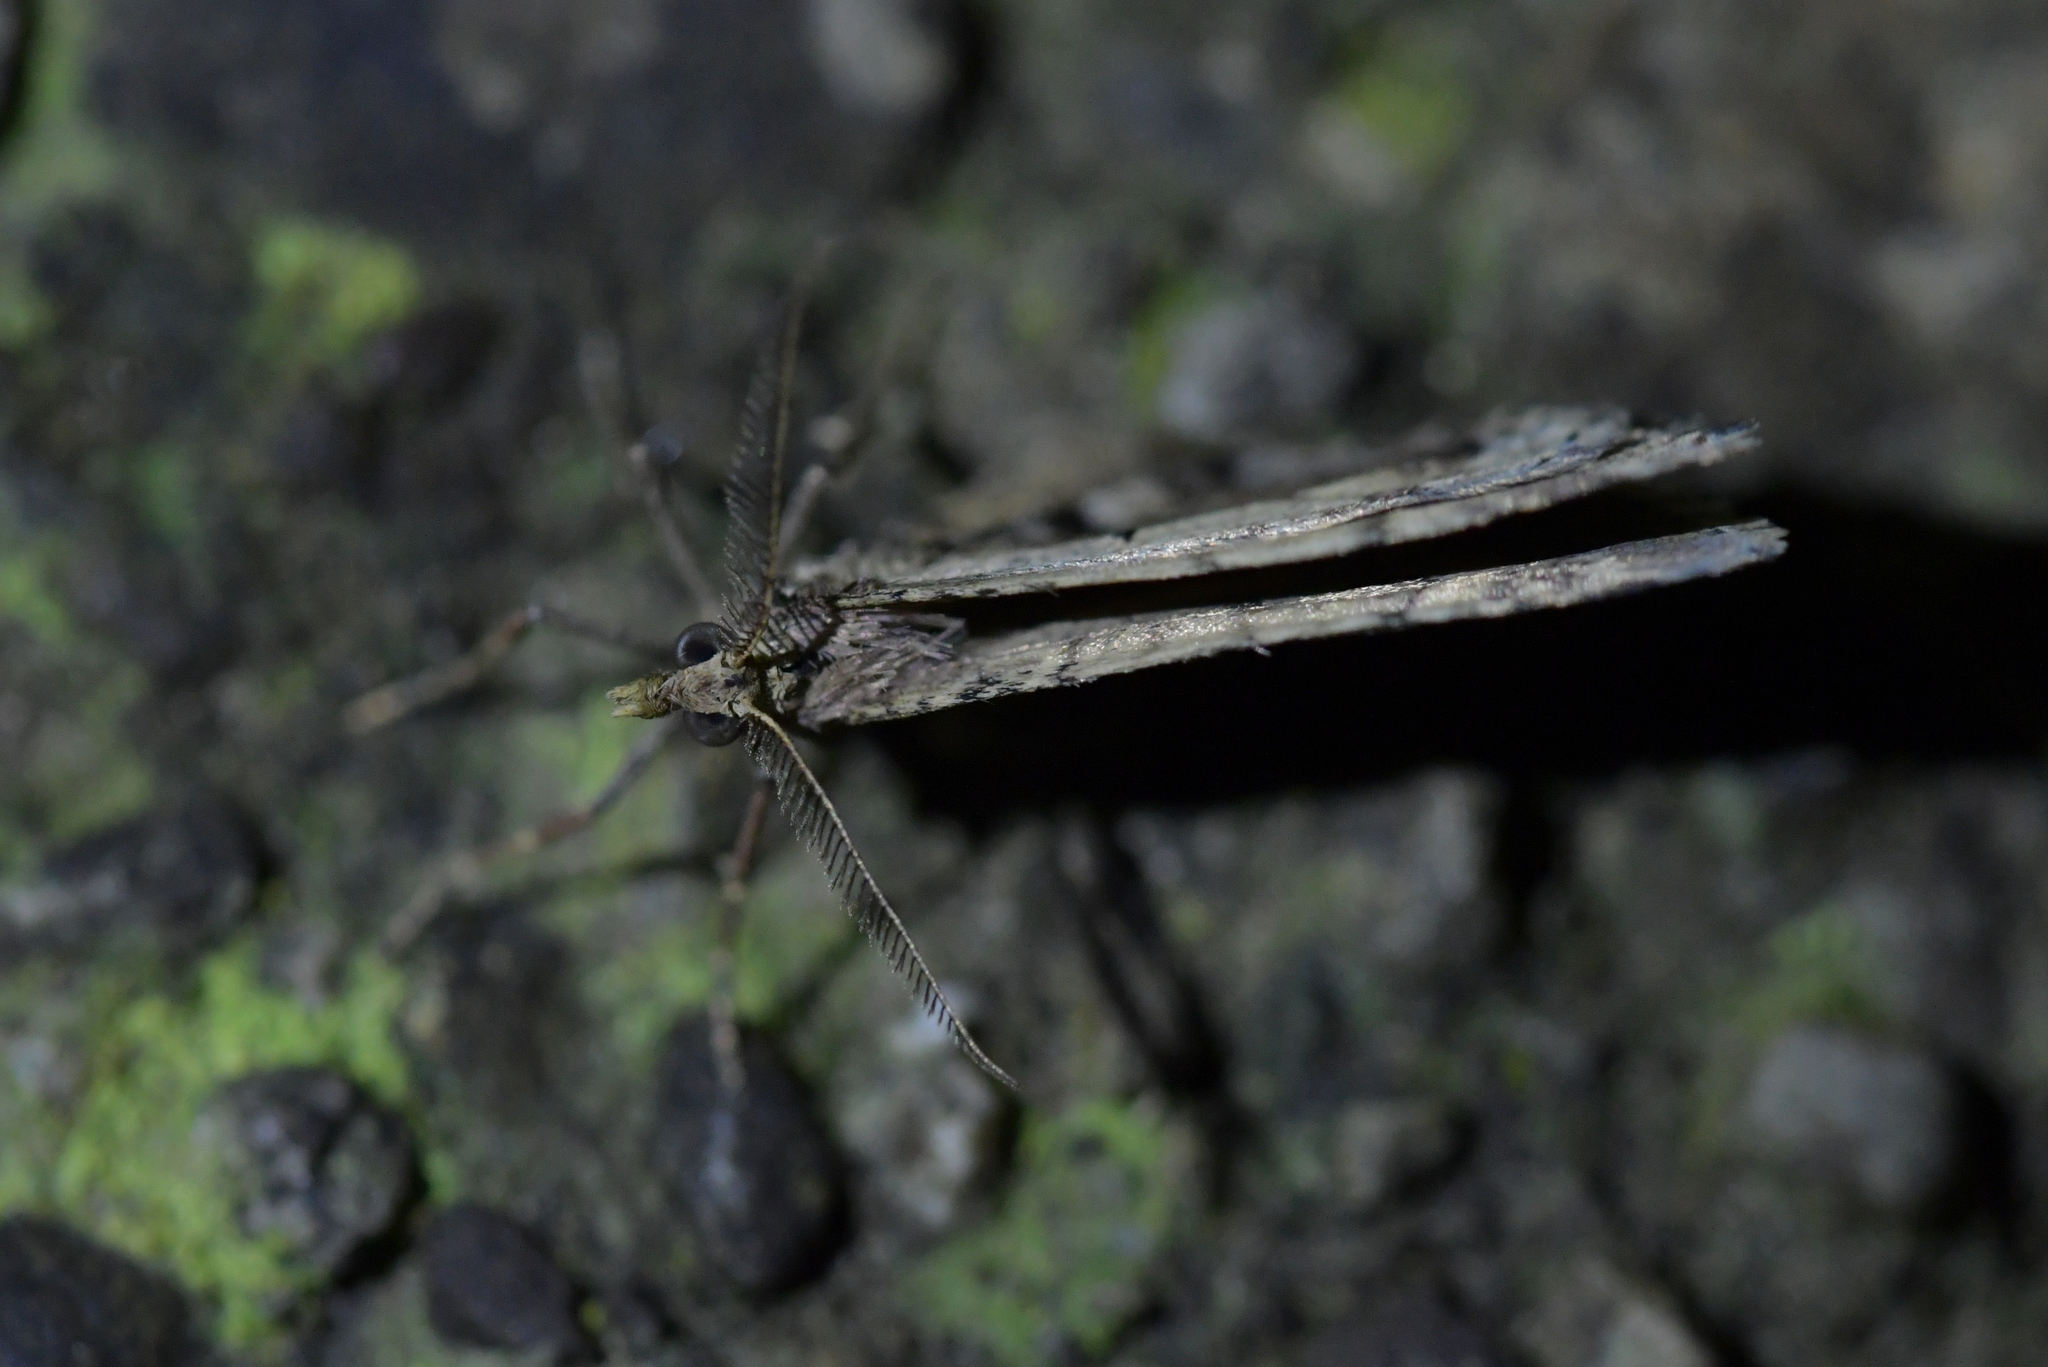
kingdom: Animalia
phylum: Arthropoda
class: Insecta
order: Lepidoptera
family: Geometridae
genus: Asaphodes
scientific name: Asaphodes aegrota
